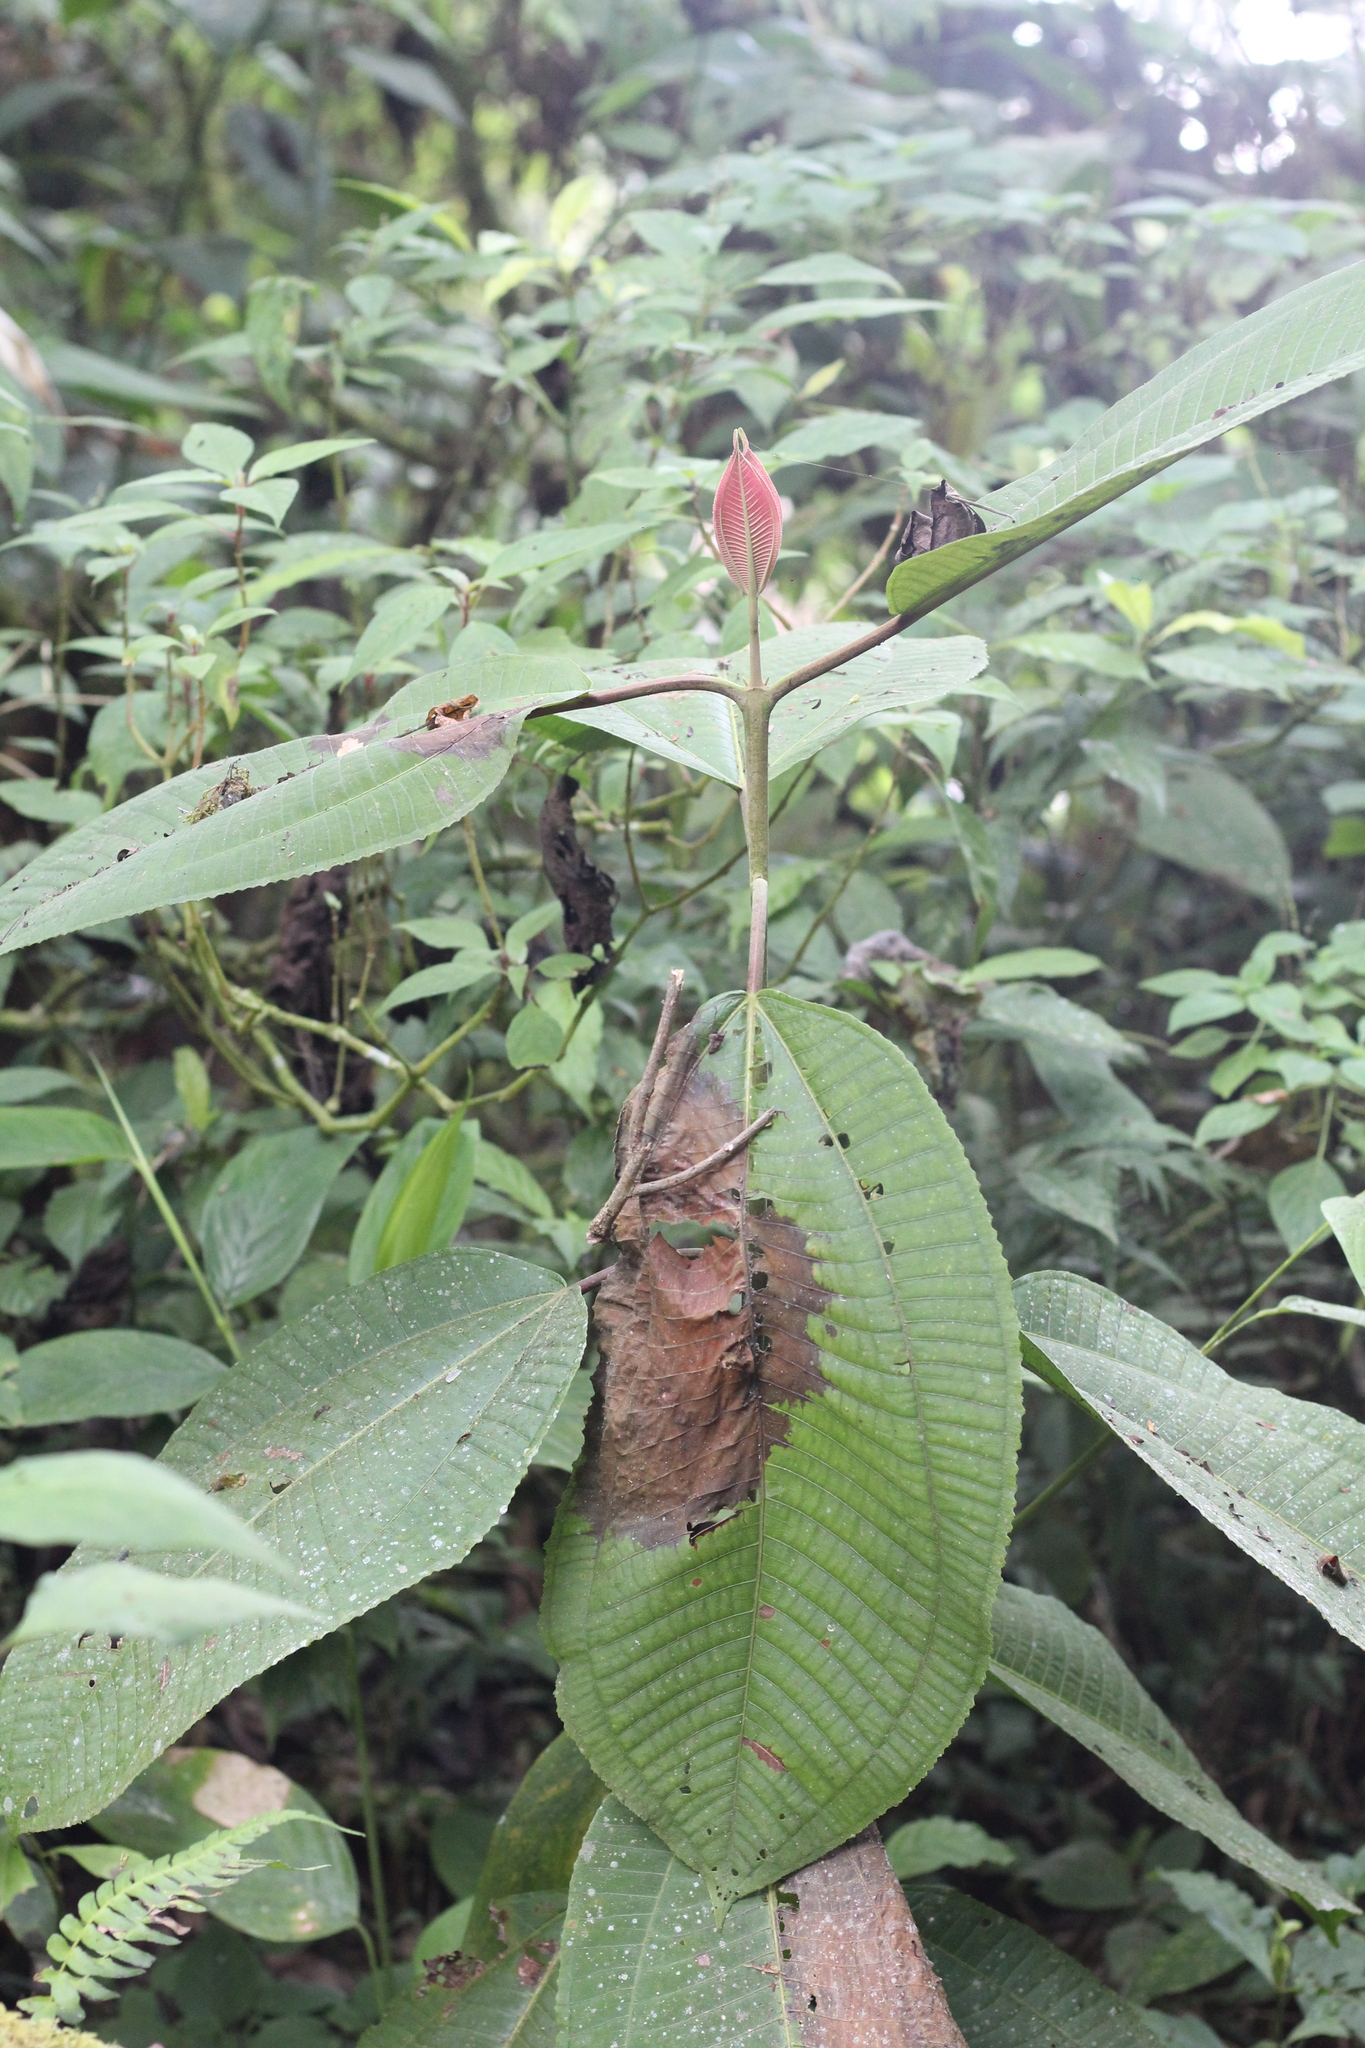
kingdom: Plantae
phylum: Tracheophyta
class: Magnoliopsida
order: Myrtales
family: Melastomataceae
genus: Miconia
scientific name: Miconia ioneura
